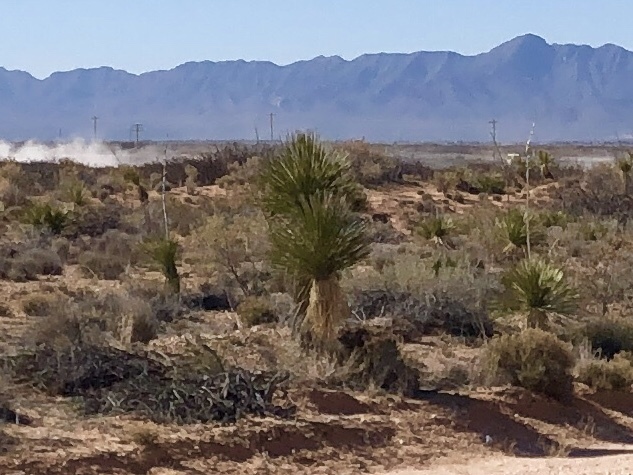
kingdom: Plantae
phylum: Tracheophyta
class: Liliopsida
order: Asparagales
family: Asparagaceae
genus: Yucca
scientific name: Yucca elata
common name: Palmella
